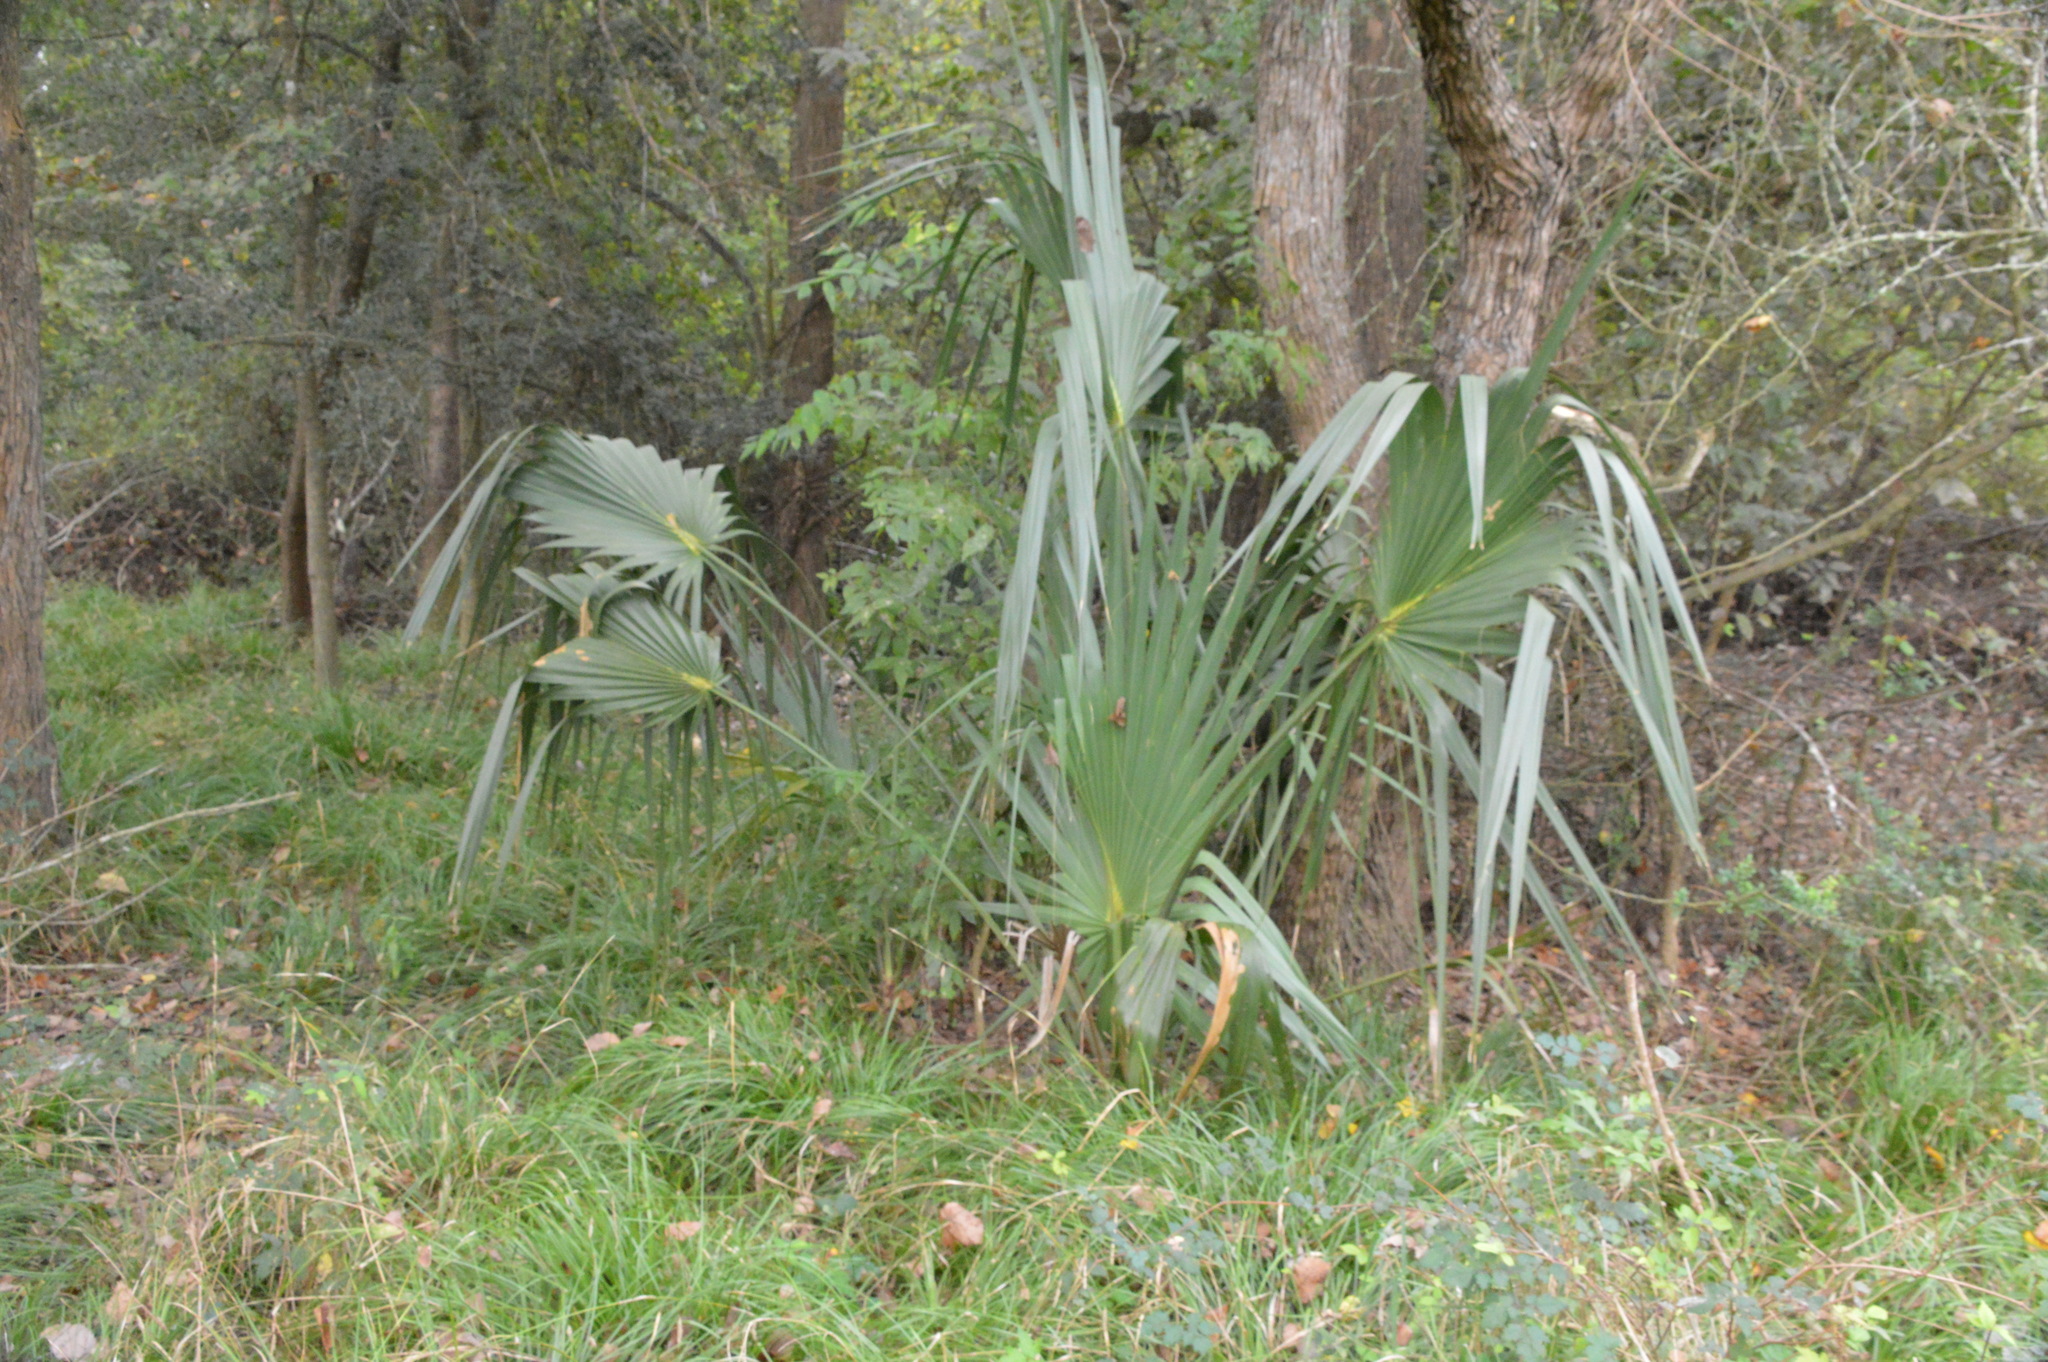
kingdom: Plantae
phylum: Tracheophyta
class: Liliopsida
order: Arecales
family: Arecaceae
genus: Sabal
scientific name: Sabal minor
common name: Dwarf palmetto
